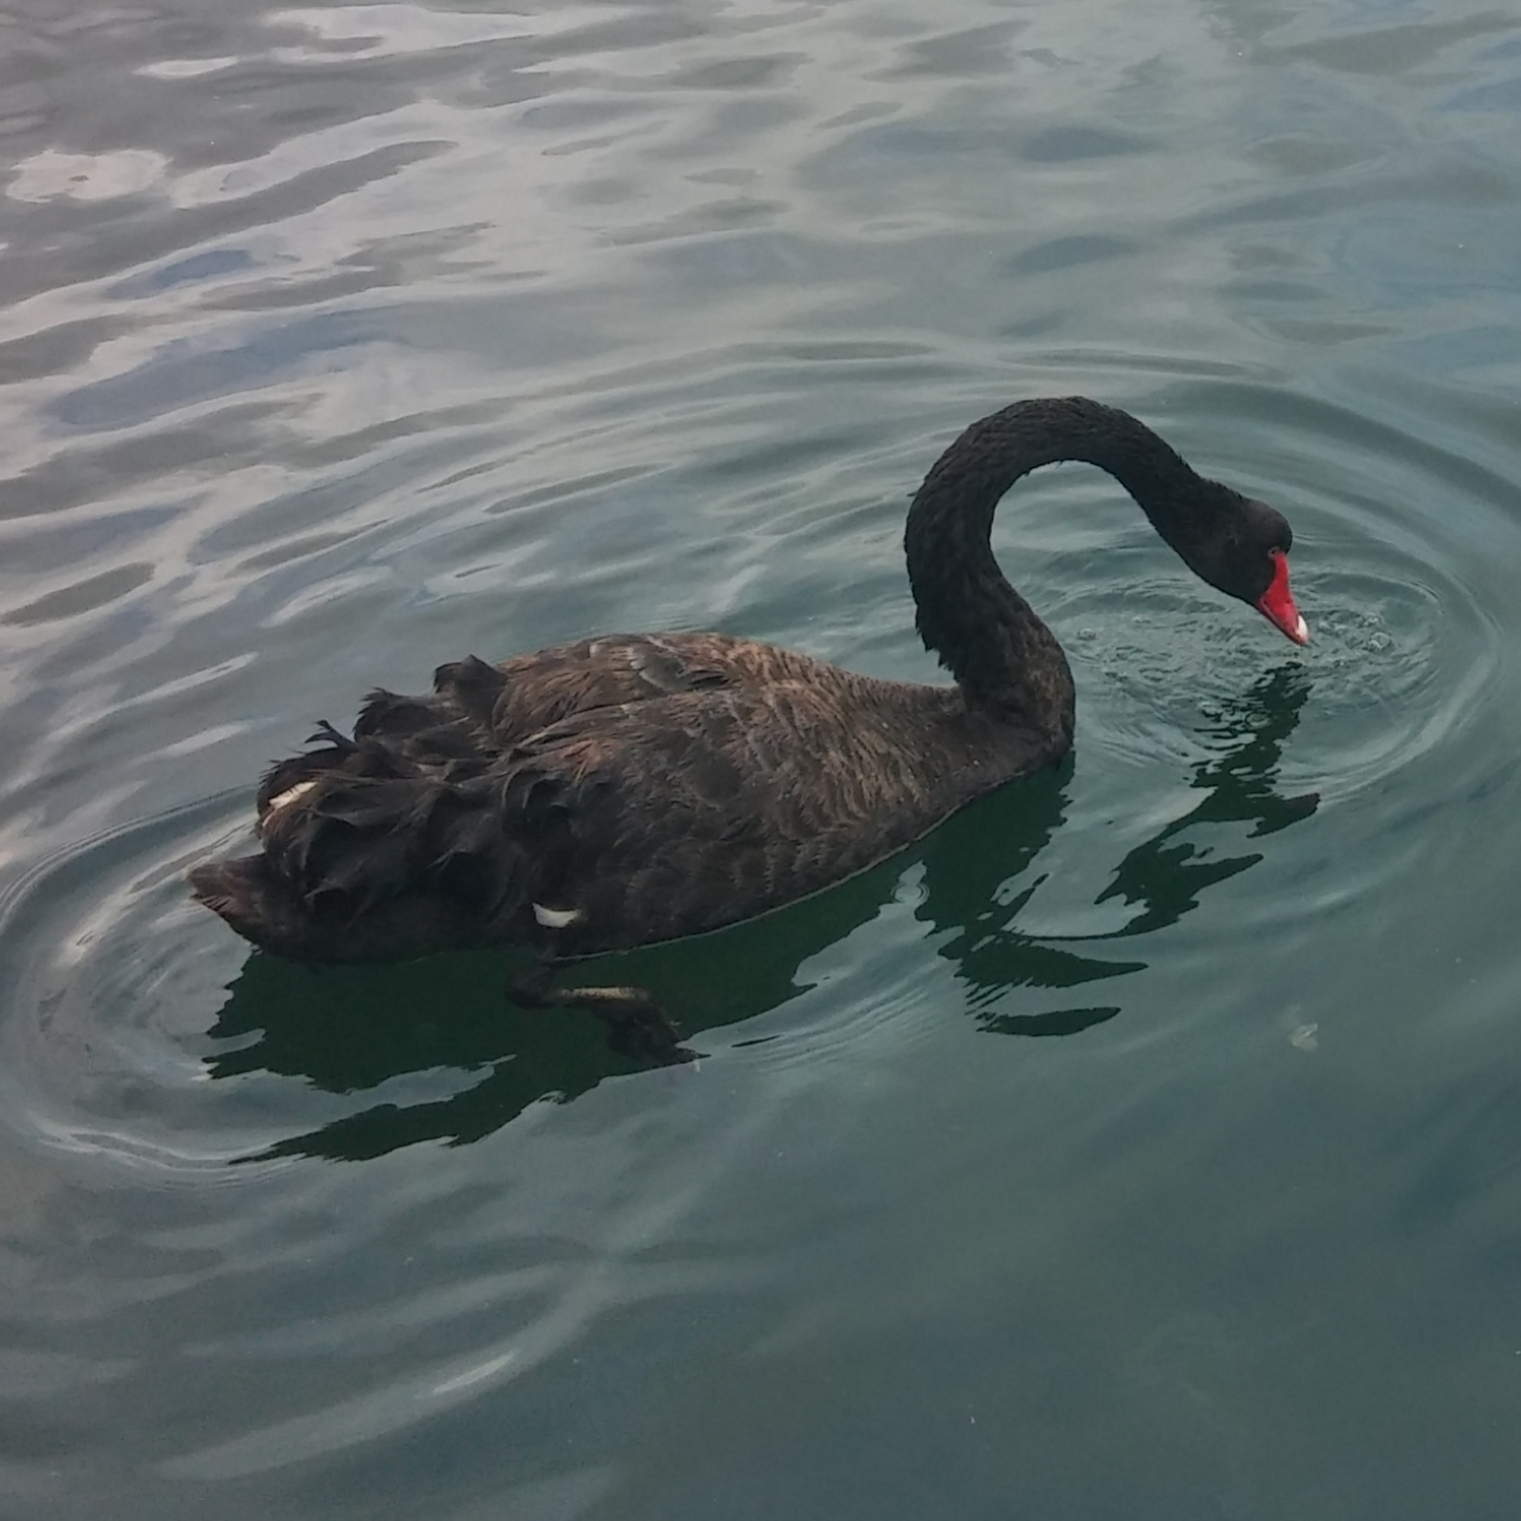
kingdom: Animalia
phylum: Chordata
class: Aves
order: Anseriformes
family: Anatidae
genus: Cygnus
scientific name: Cygnus atratus
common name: Black swan
